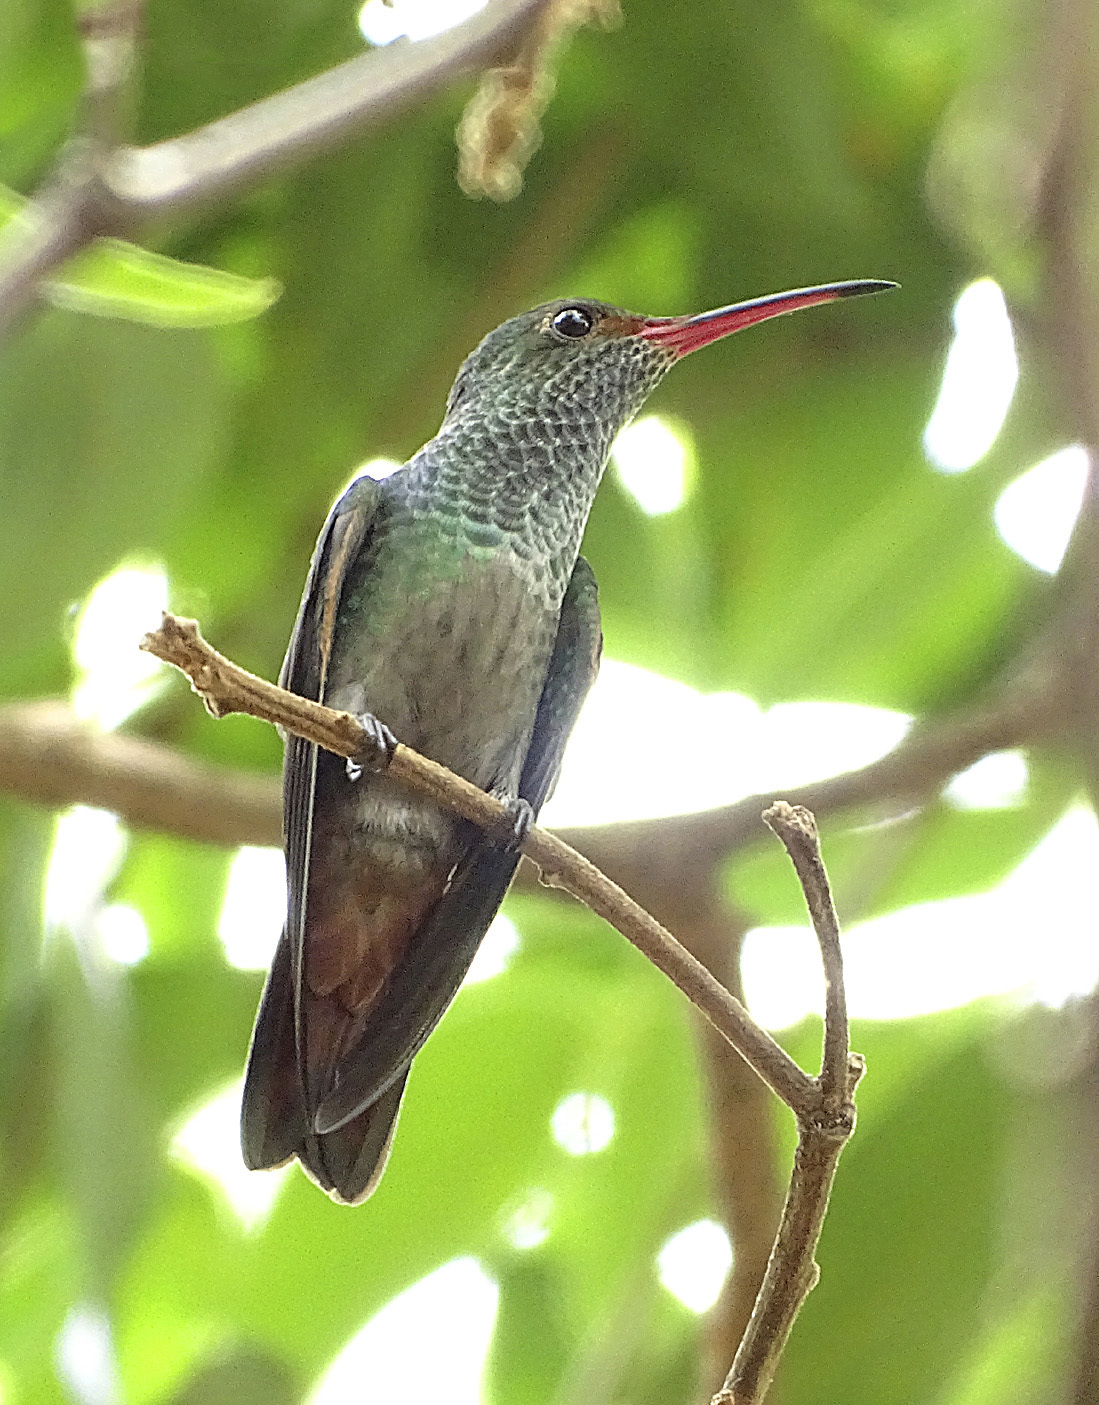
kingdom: Animalia
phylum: Chordata
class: Aves
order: Apodiformes
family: Trochilidae
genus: Amazilia
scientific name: Amazilia tzacatl
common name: Rufous-tailed hummingbird
